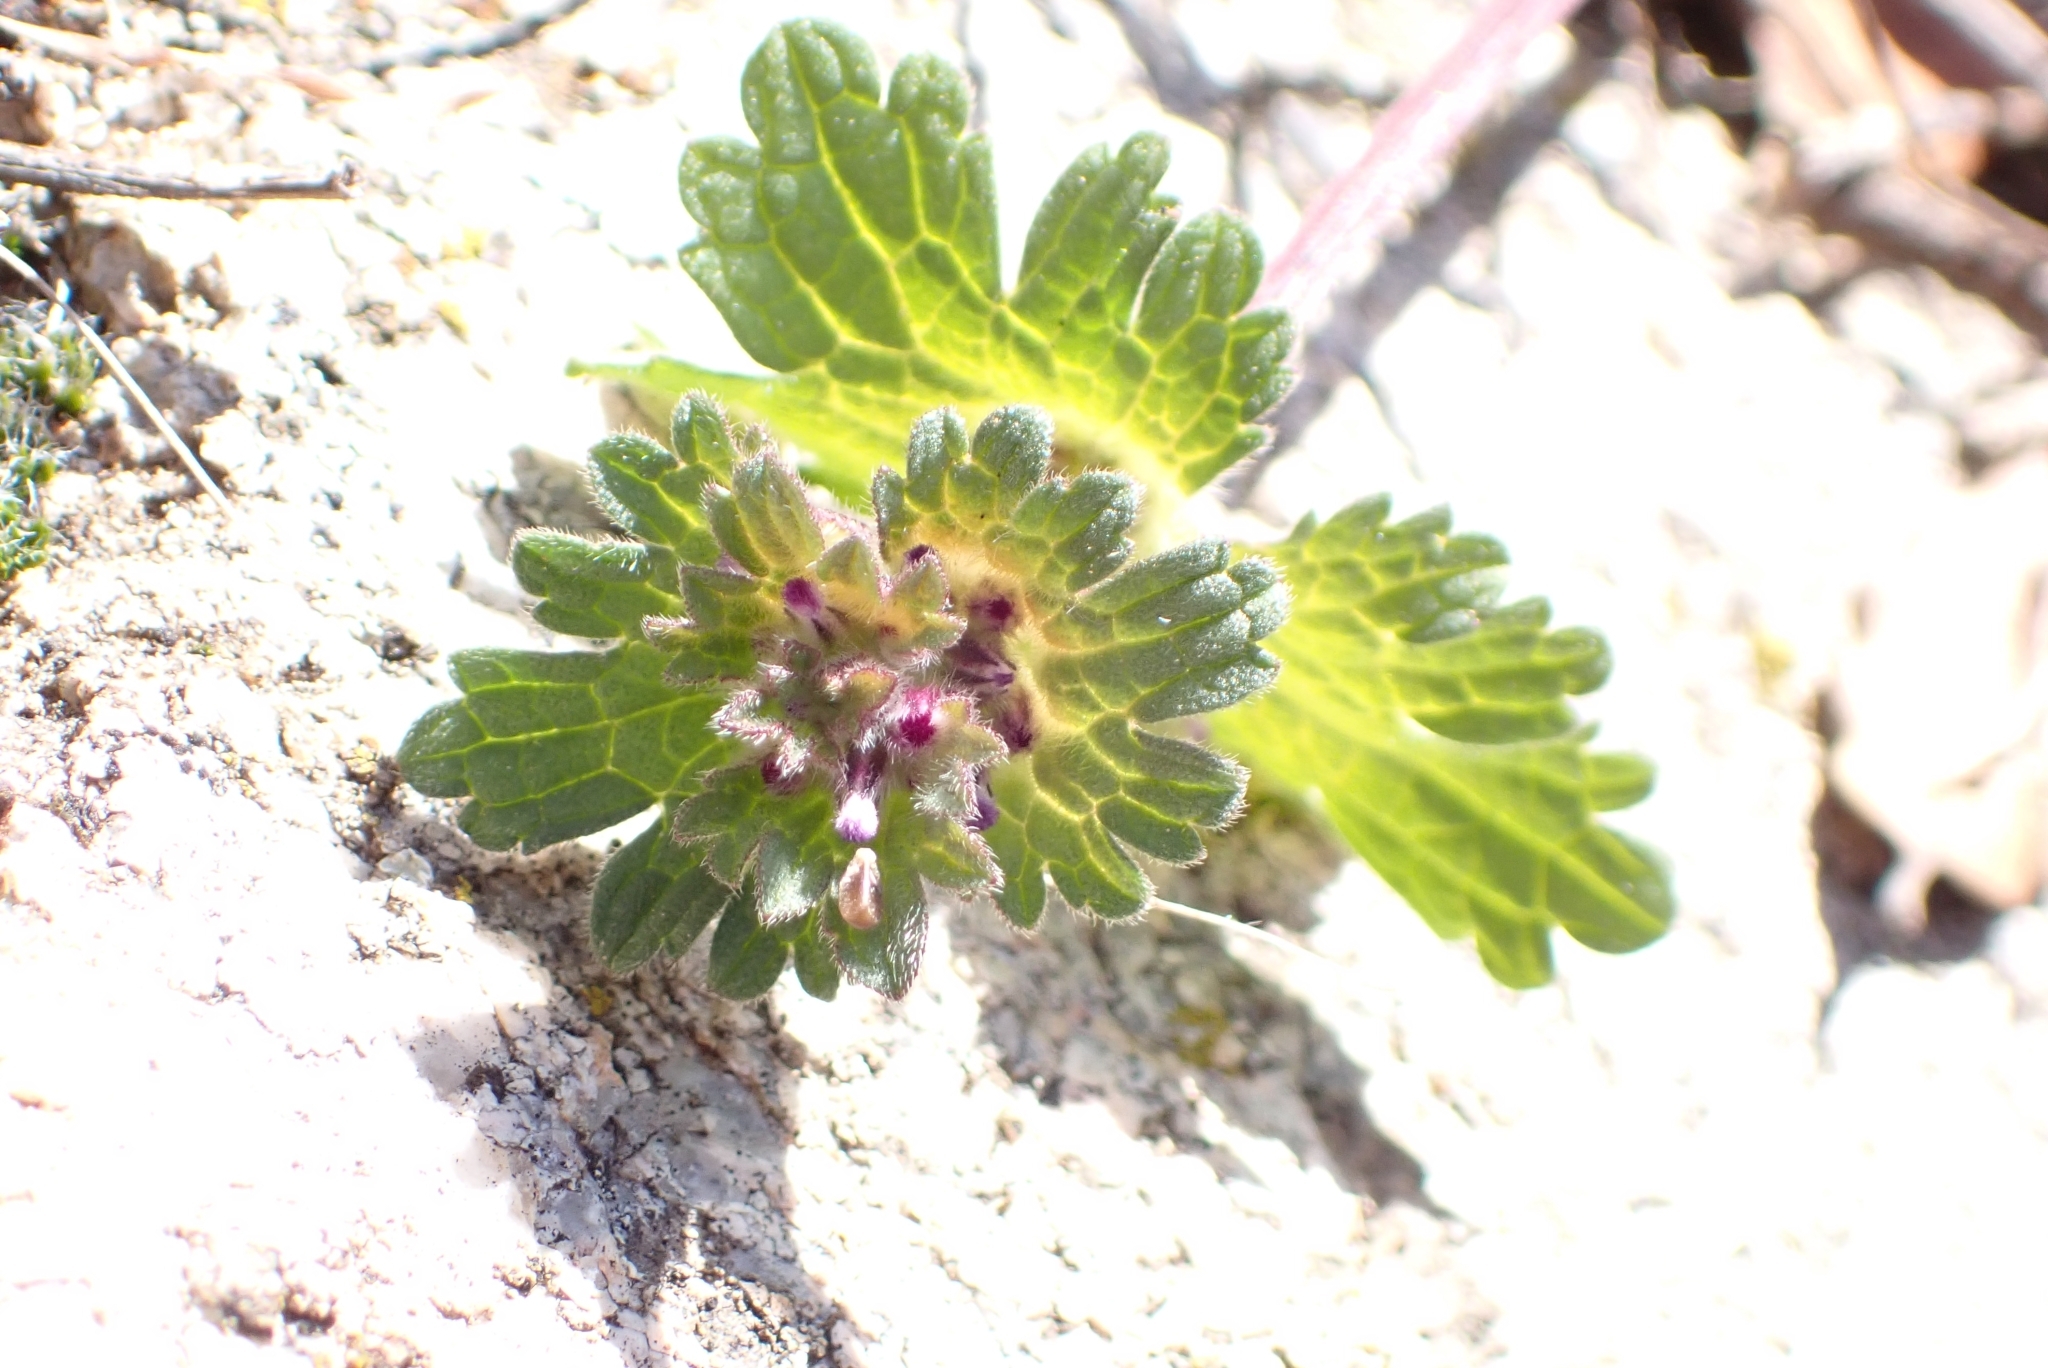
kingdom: Plantae
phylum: Tracheophyta
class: Magnoliopsida
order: Lamiales
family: Lamiaceae
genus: Lamium
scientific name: Lamium amplexicaule
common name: Henbit dead-nettle
